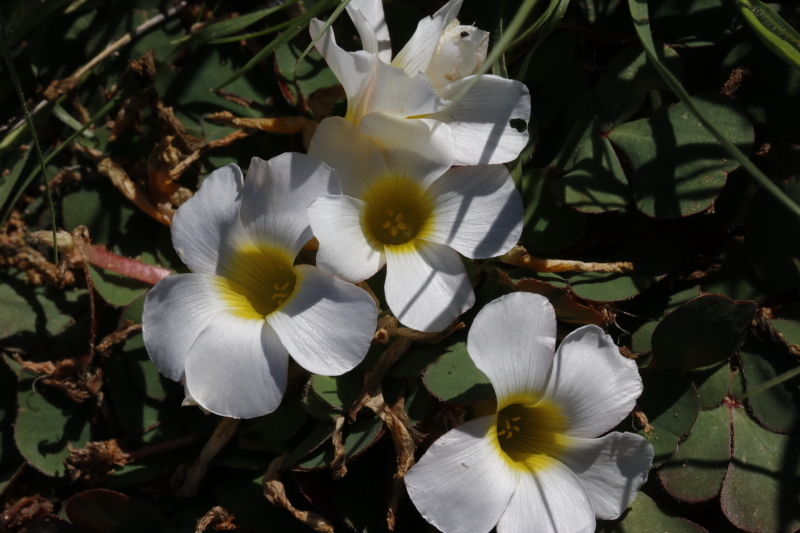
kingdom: Plantae
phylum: Tracheophyta
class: Magnoliopsida
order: Oxalidales
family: Oxalidaceae
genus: Oxalis
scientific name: Oxalis purpurea
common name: Purple woodsorrel
